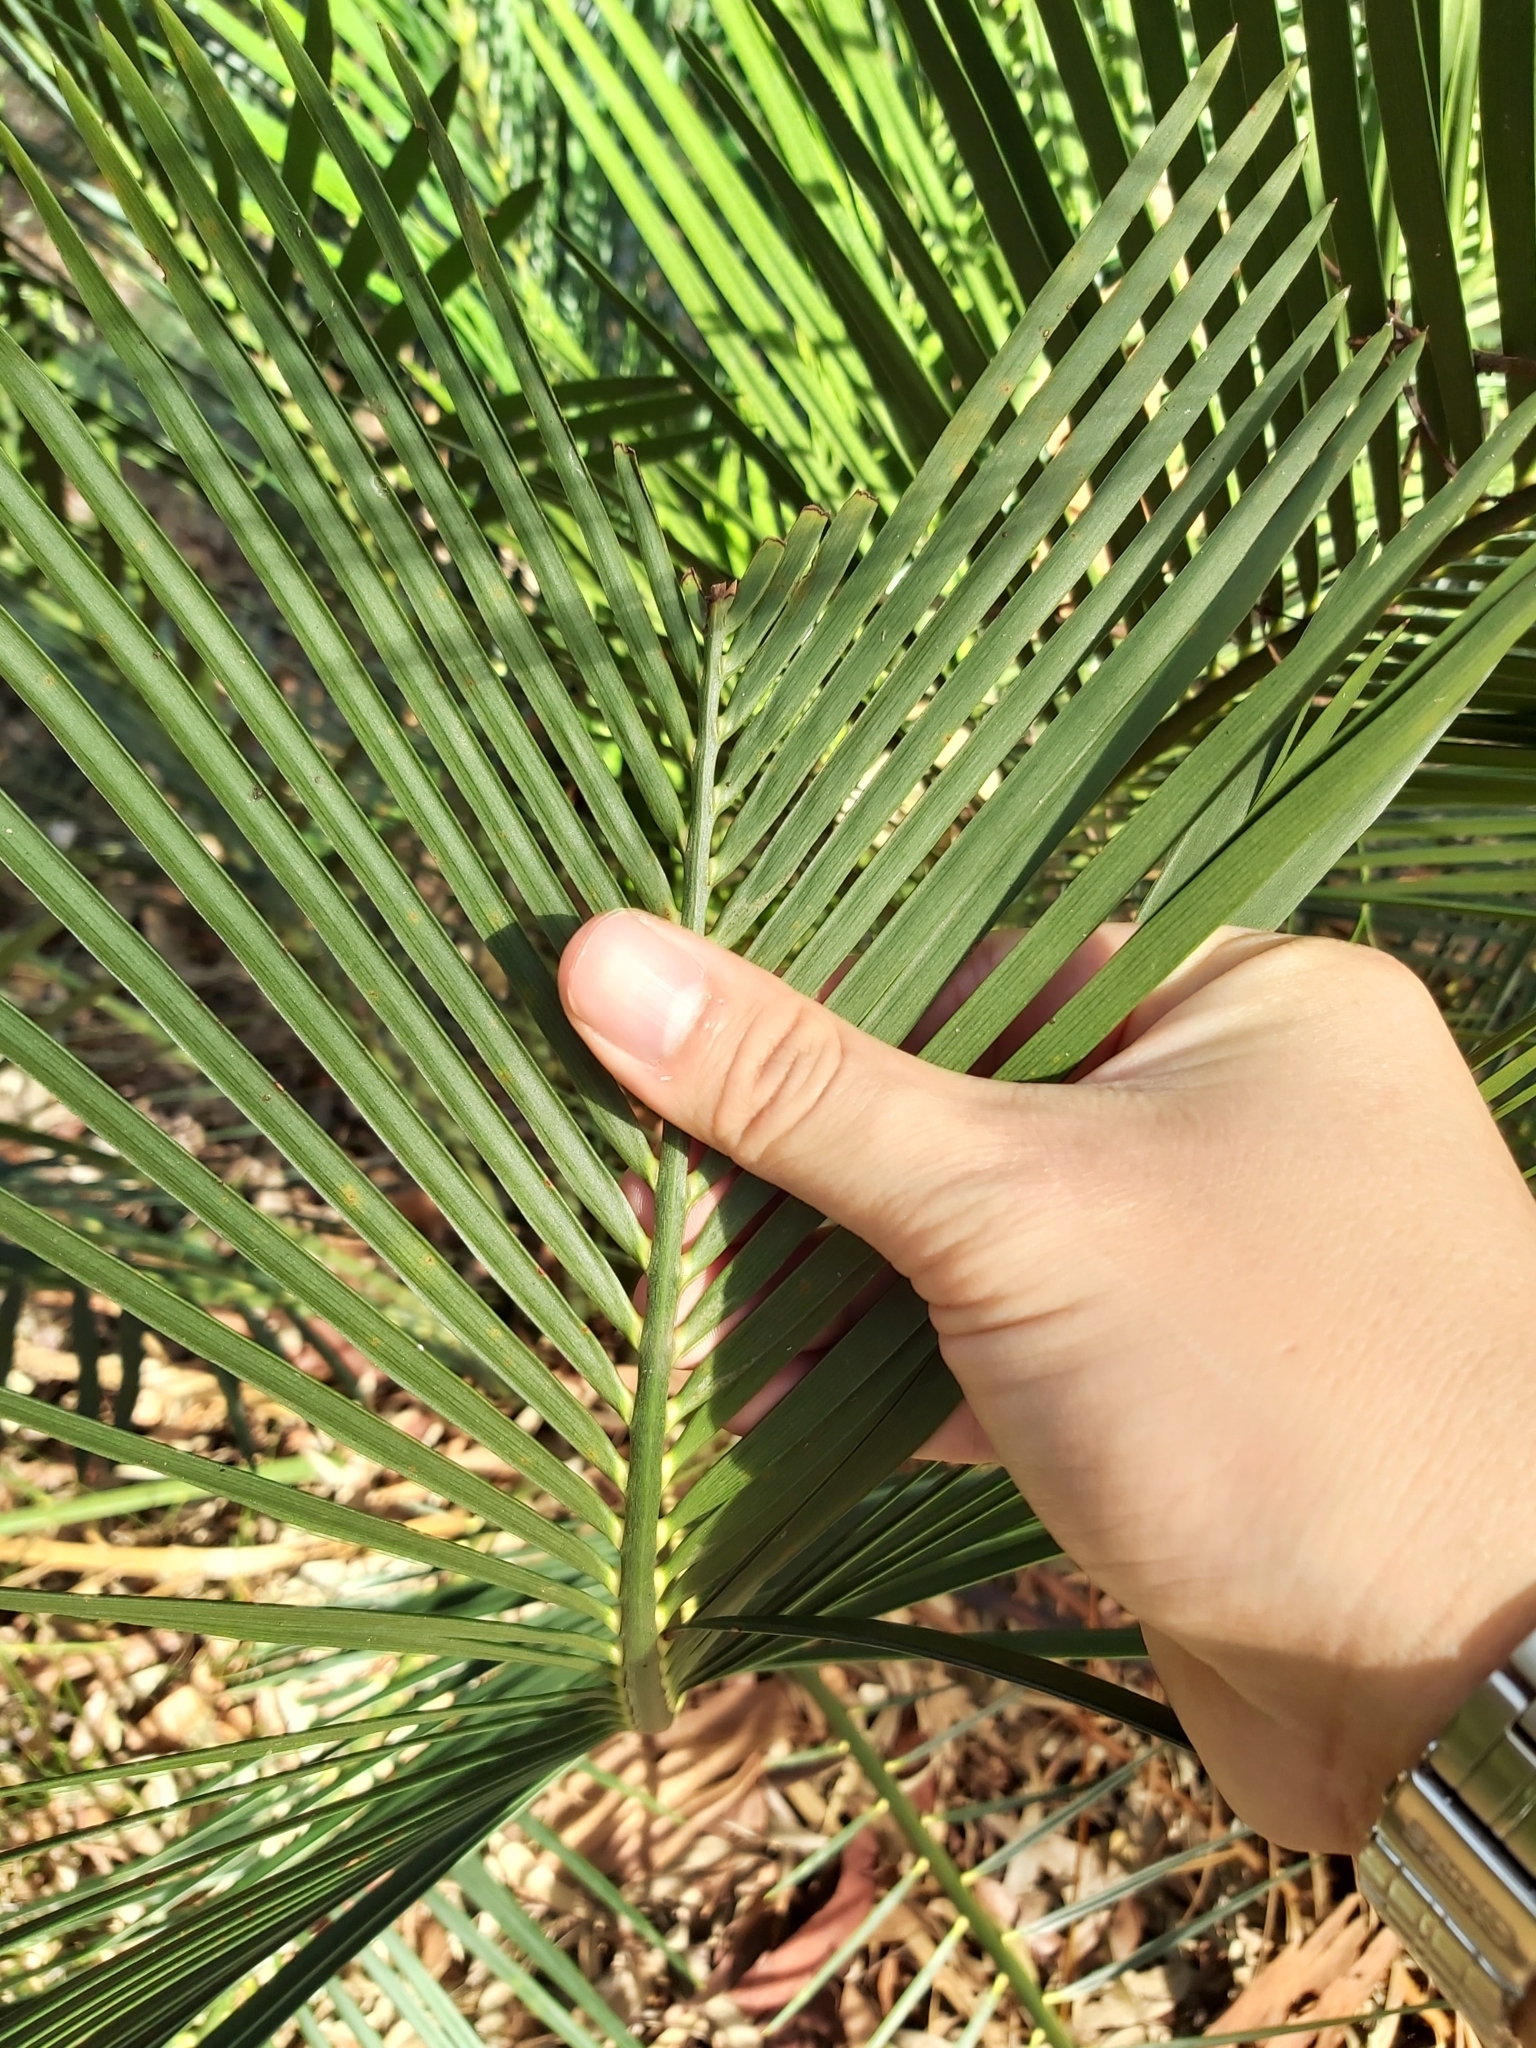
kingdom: Plantae
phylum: Tracheophyta
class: Cycadopsida
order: Cycadales
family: Zamiaceae
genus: Macrozamia
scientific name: Macrozamia communis
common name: Burrawong
